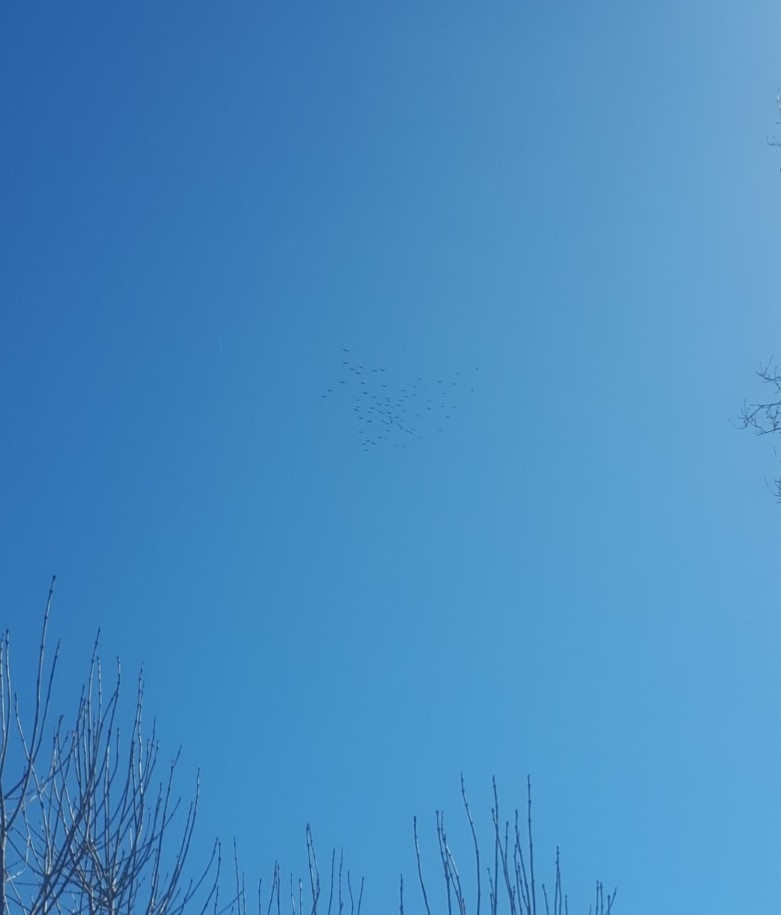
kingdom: Animalia
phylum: Chordata
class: Aves
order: Gruiformes
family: Gruidae
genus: Grus
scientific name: Grus grus
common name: Common crane
